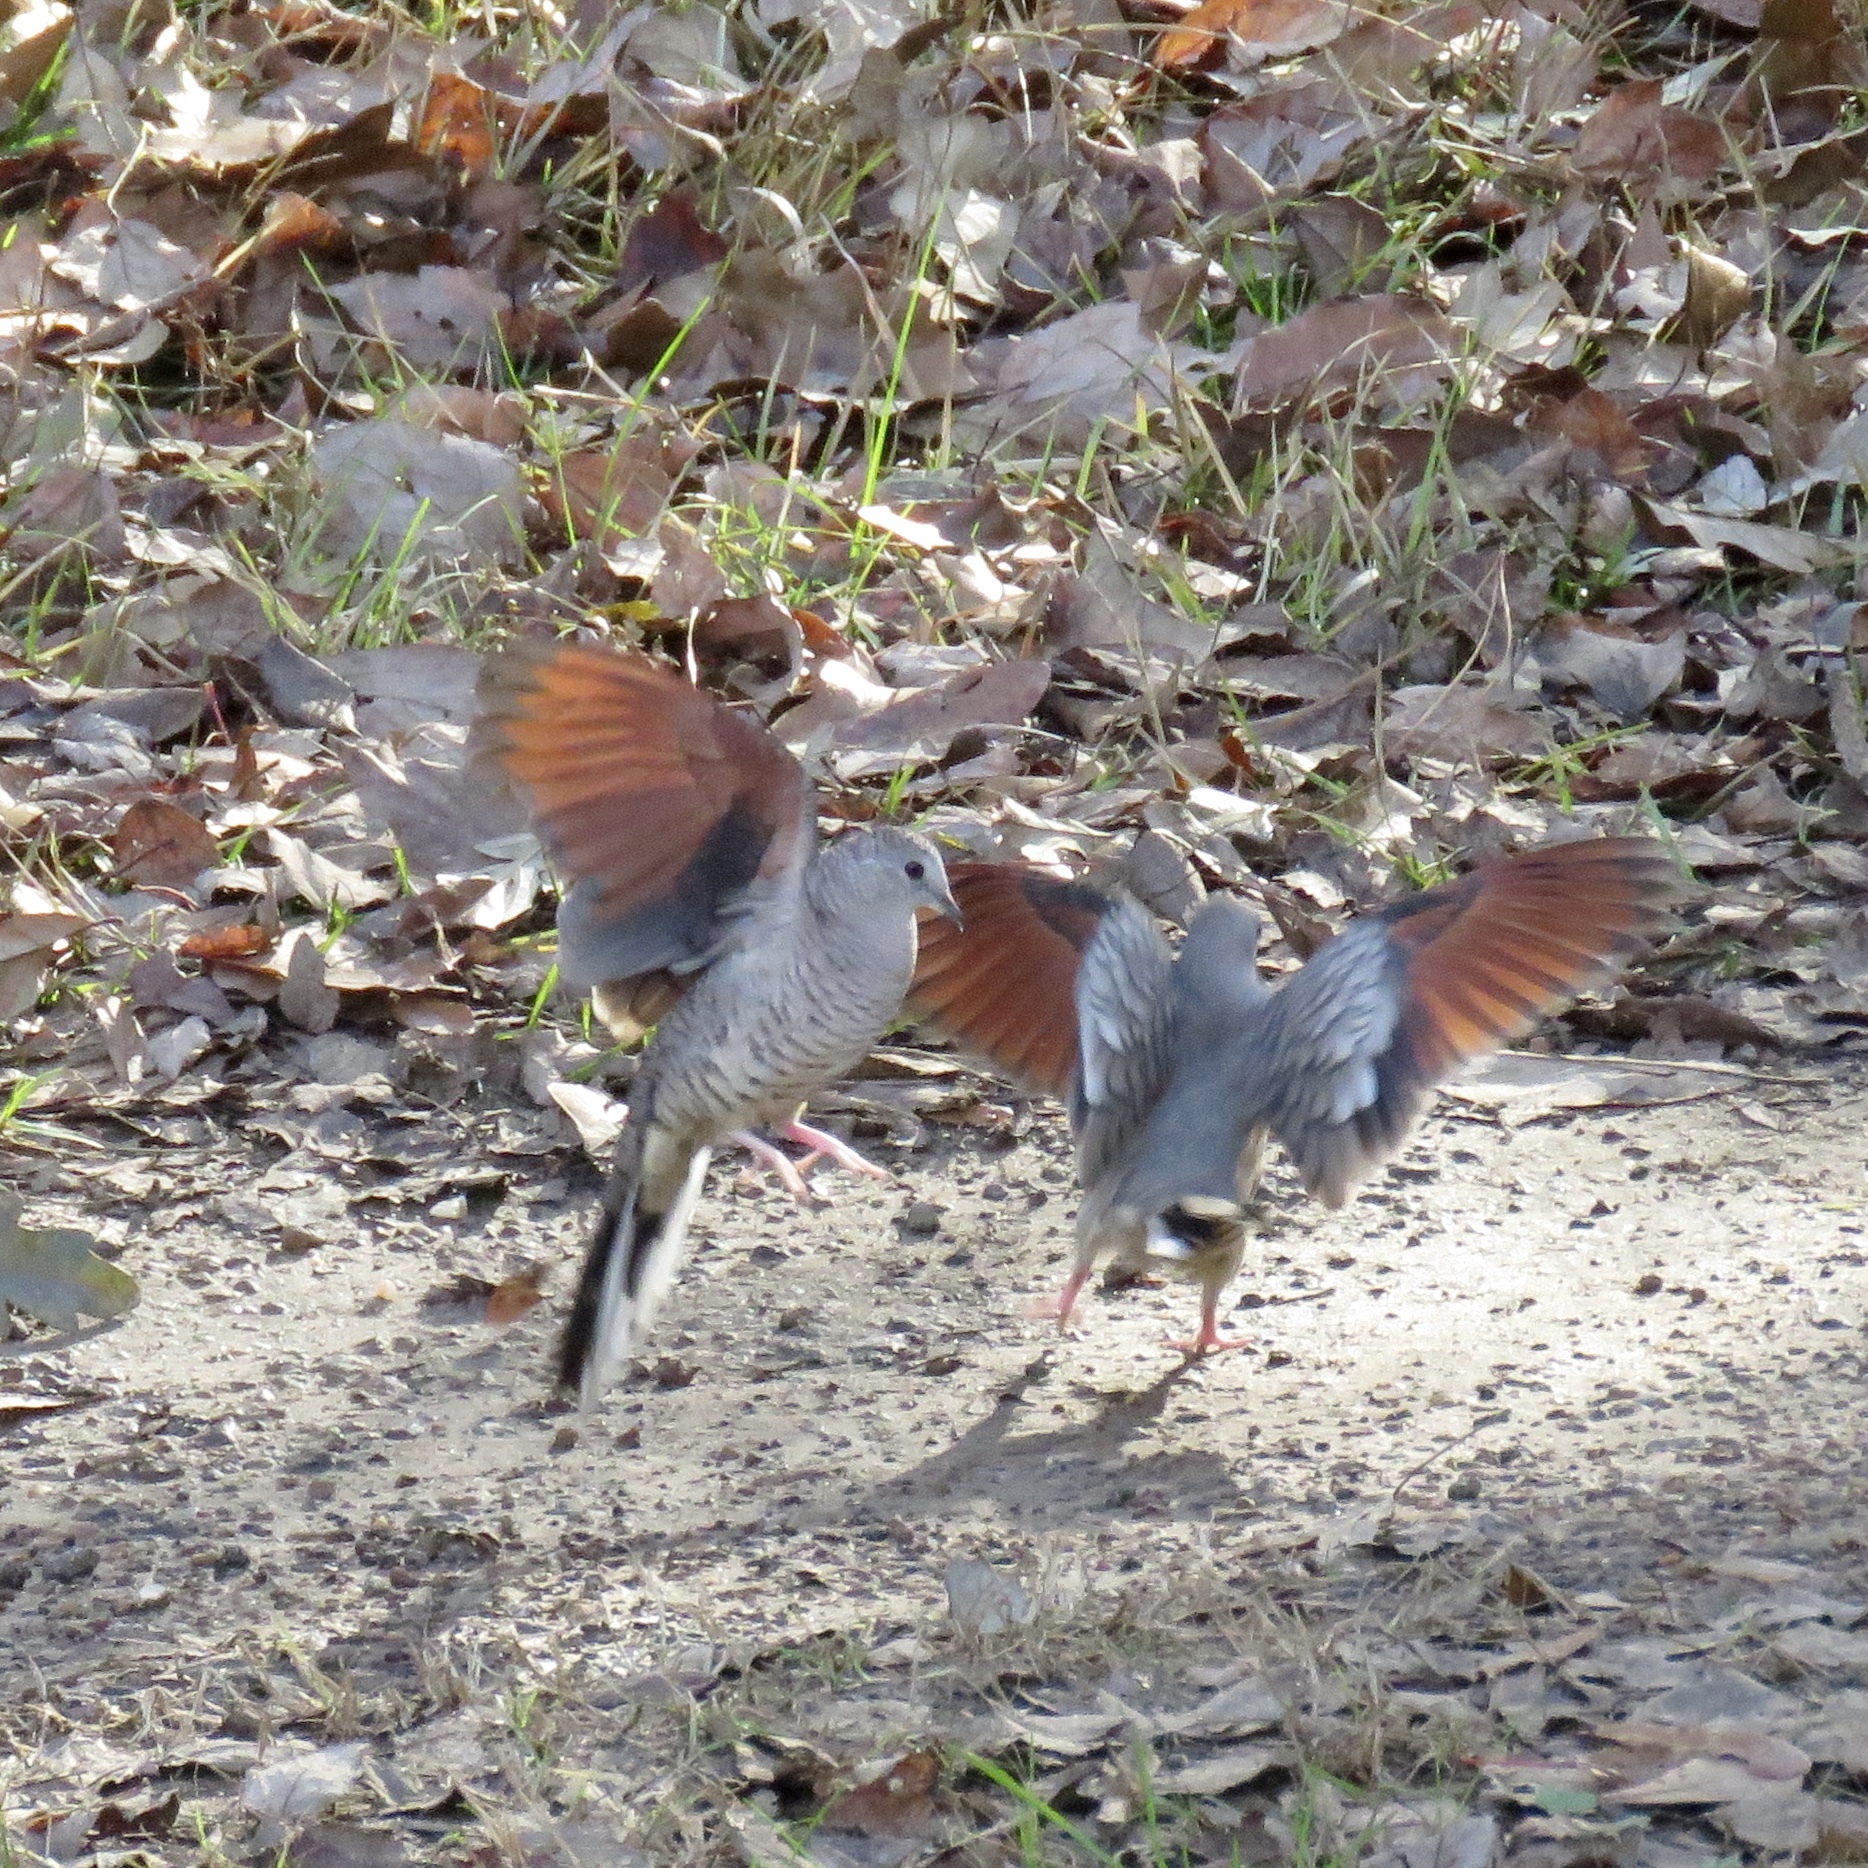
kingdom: Animalia
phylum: Chordata
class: Aves
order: Columbiformes
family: Columbidae
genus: Columbina
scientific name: Columbina inca
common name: Inca dove
